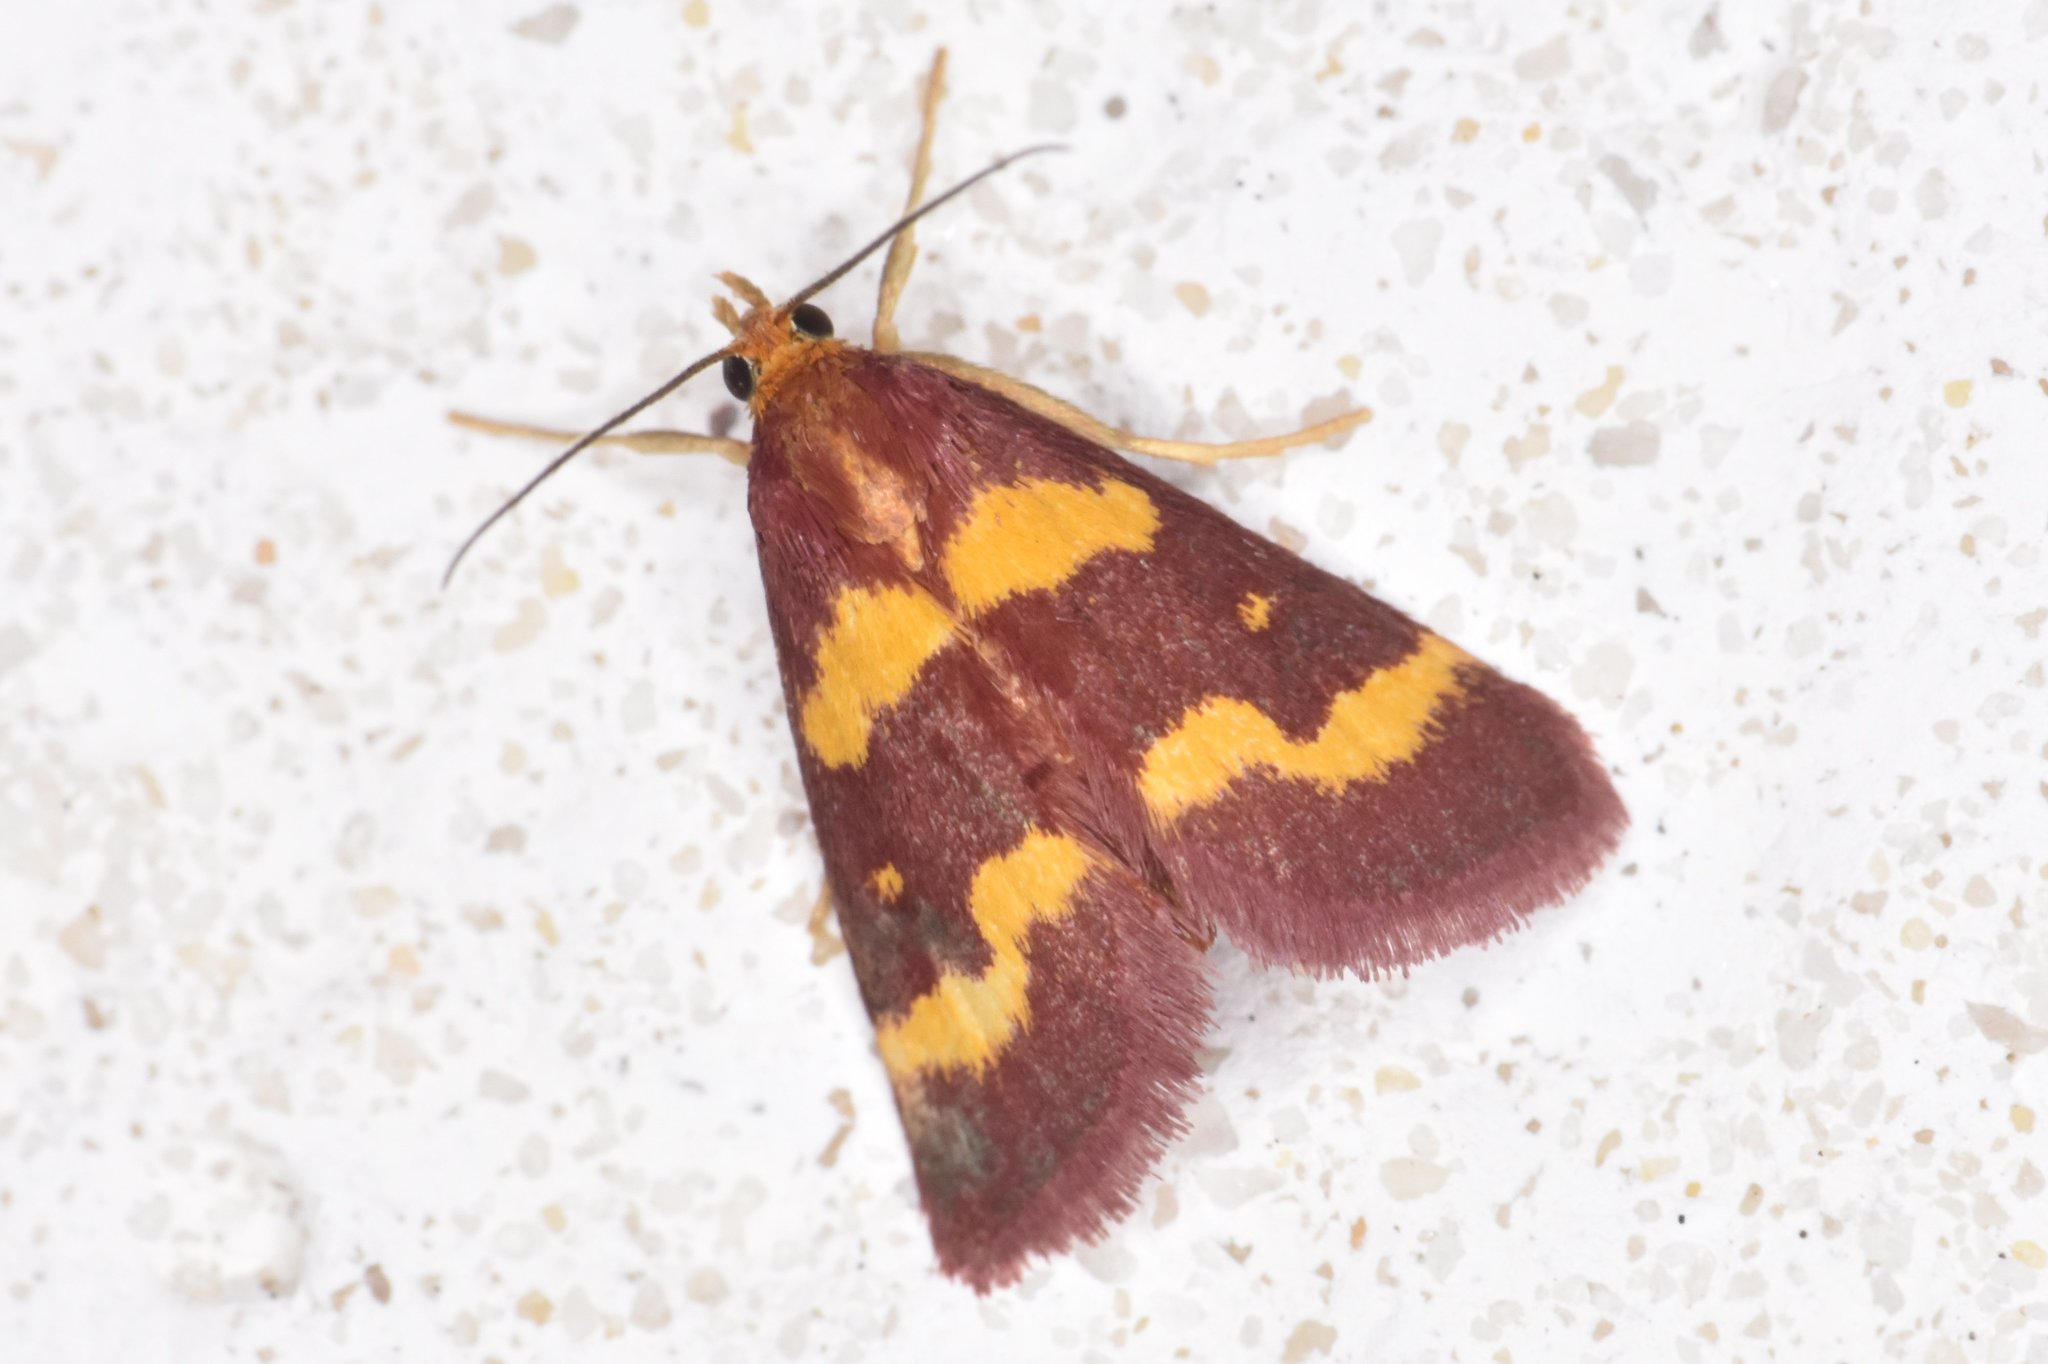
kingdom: Animalia
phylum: Arthropoda
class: Insecta
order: Lepidoptera
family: Crambidae
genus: Pyrausta
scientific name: Pyrausta tyralis
